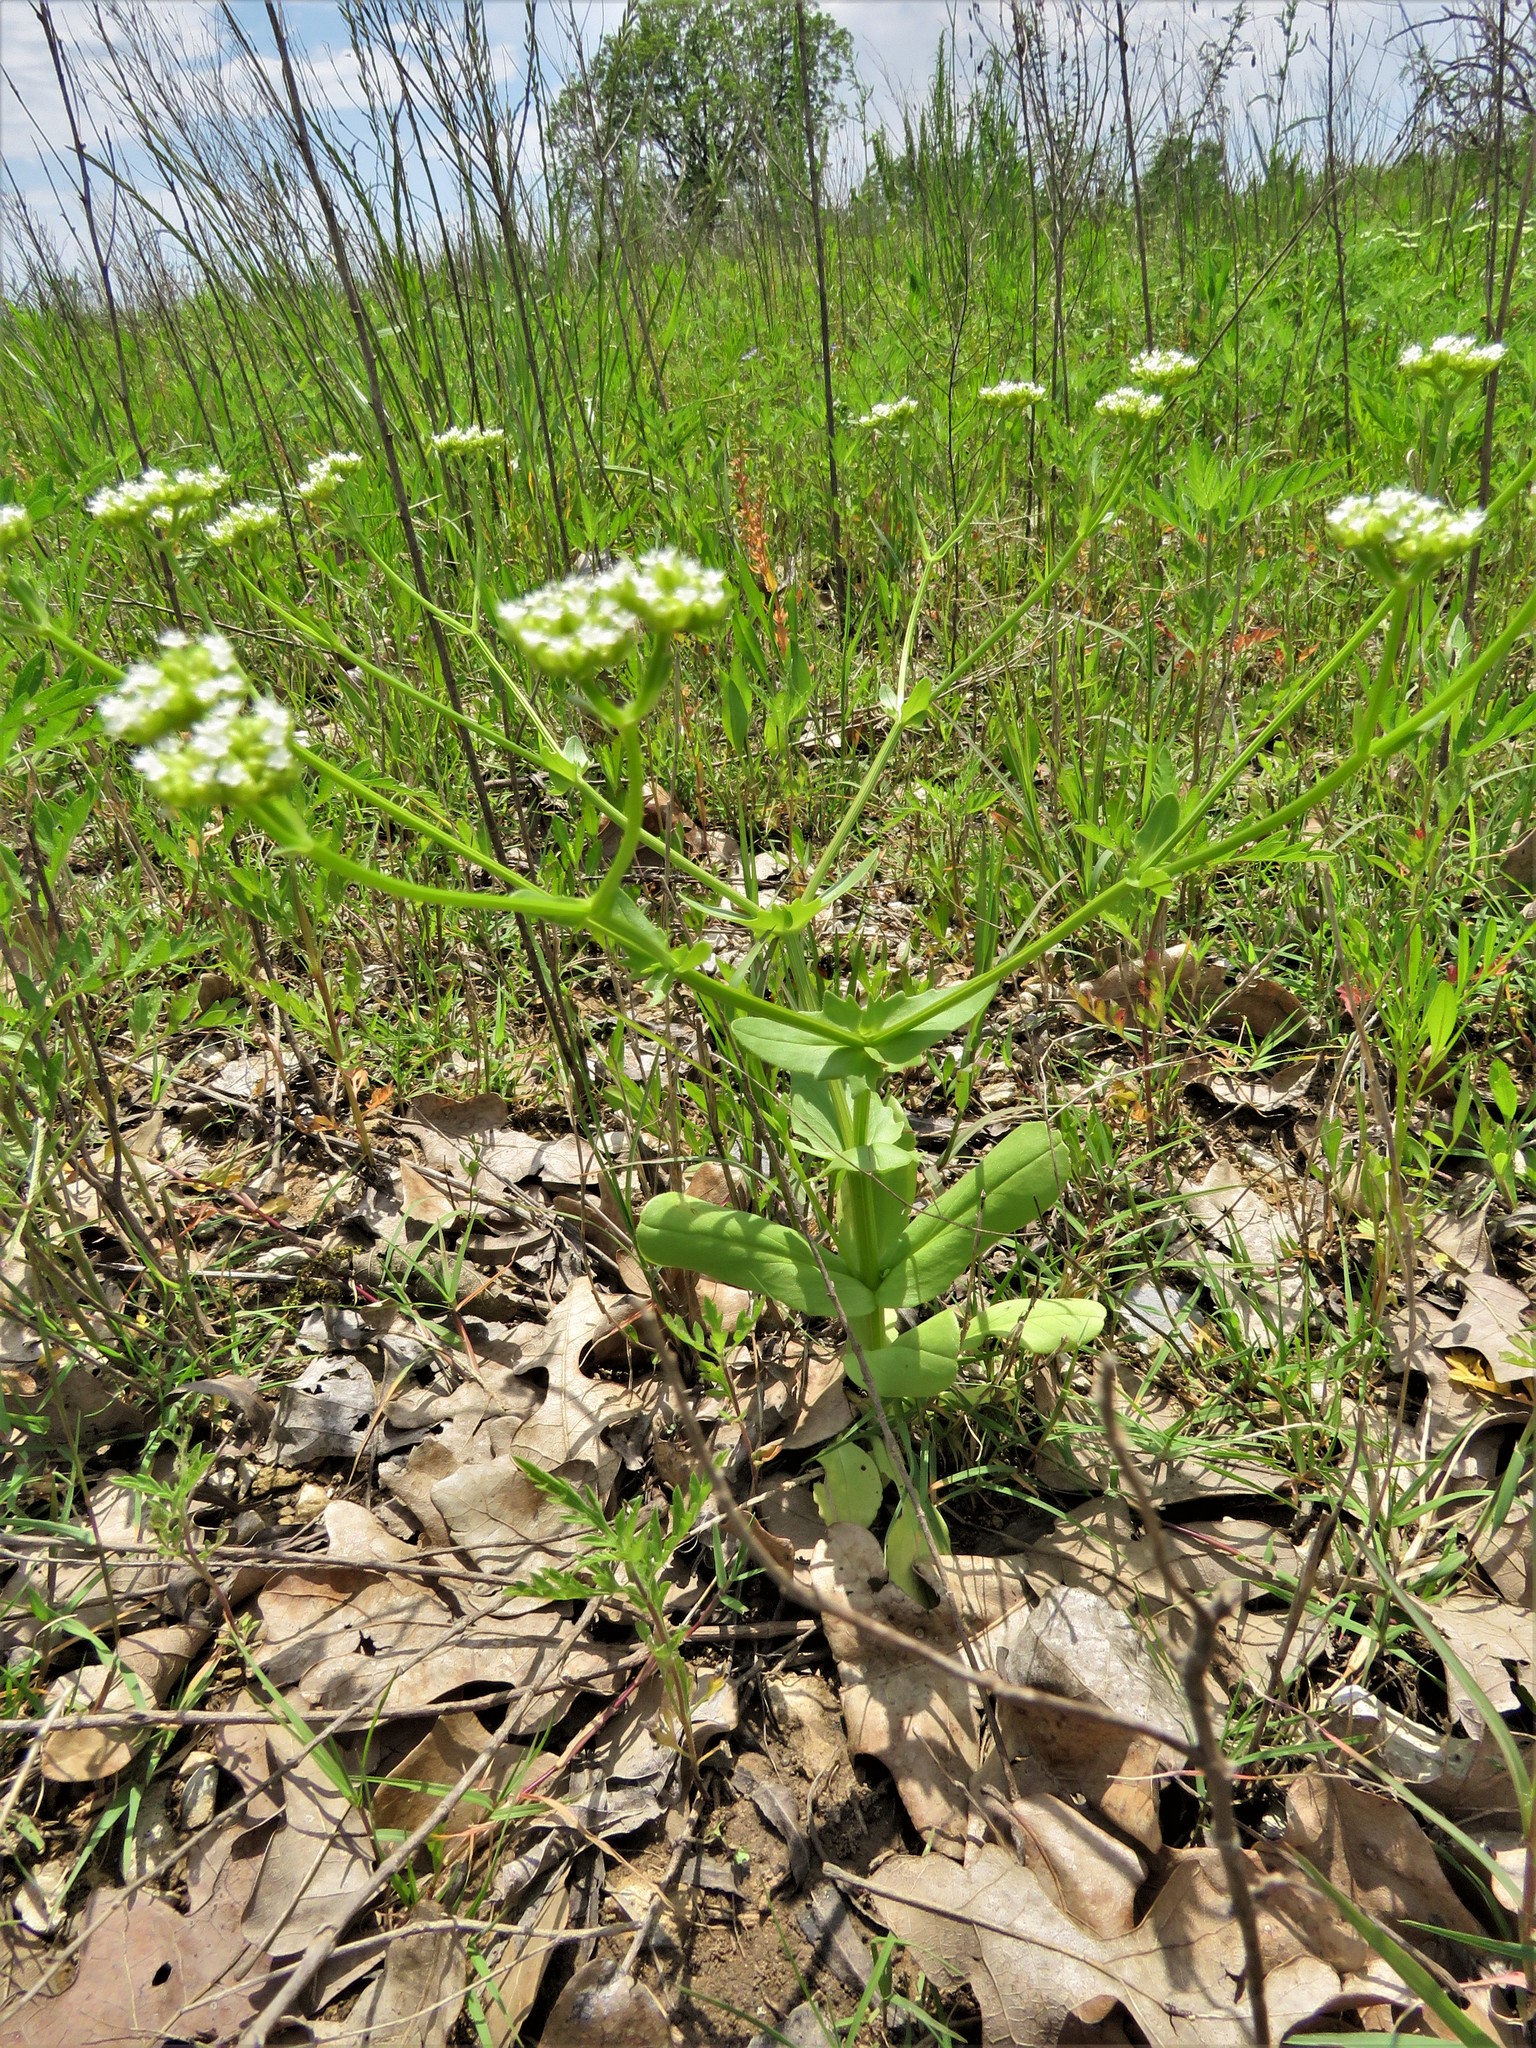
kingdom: Plantae
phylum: Tracheophyta
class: Magnoliopsida
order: Dipsacales
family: Caprifoliaceae
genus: Valerianella
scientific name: Valerianella radiata
